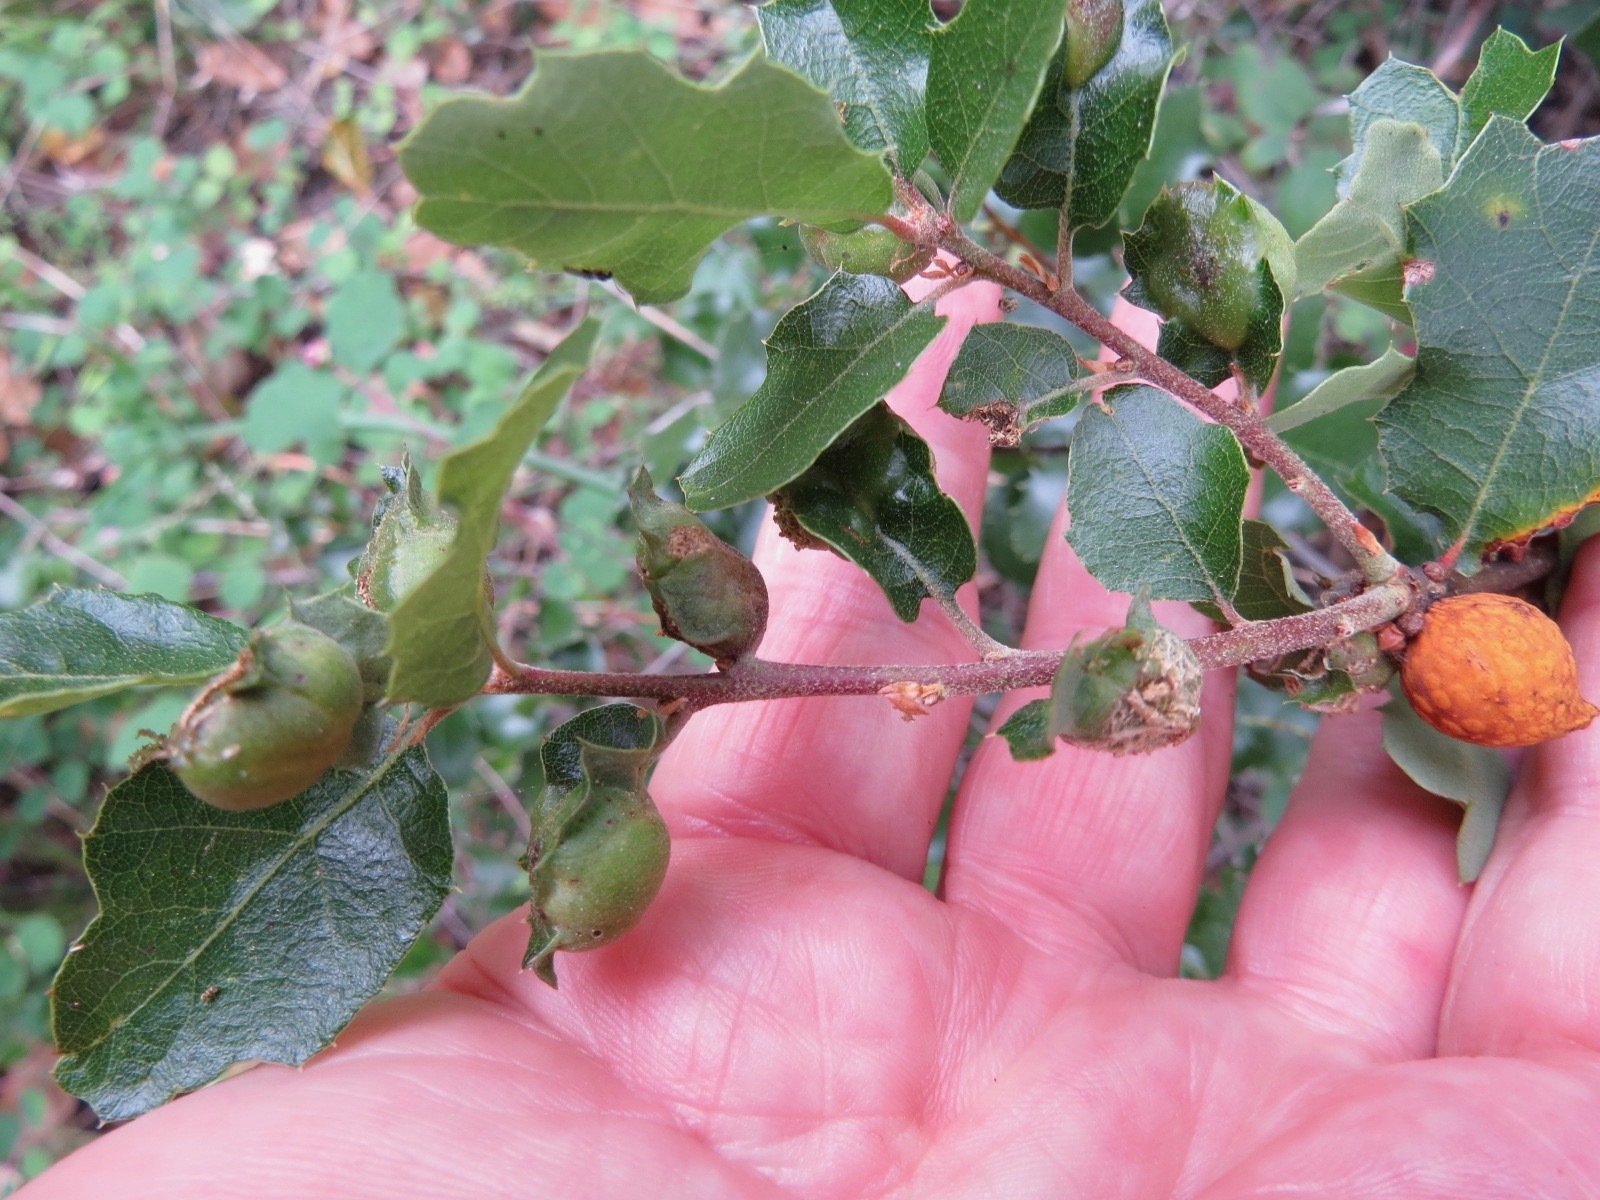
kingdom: Animalia
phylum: Arthropoda
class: Insecta
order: Hymenoptera
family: Cynipidae
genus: Burnettweldia
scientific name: Burnettweldia
